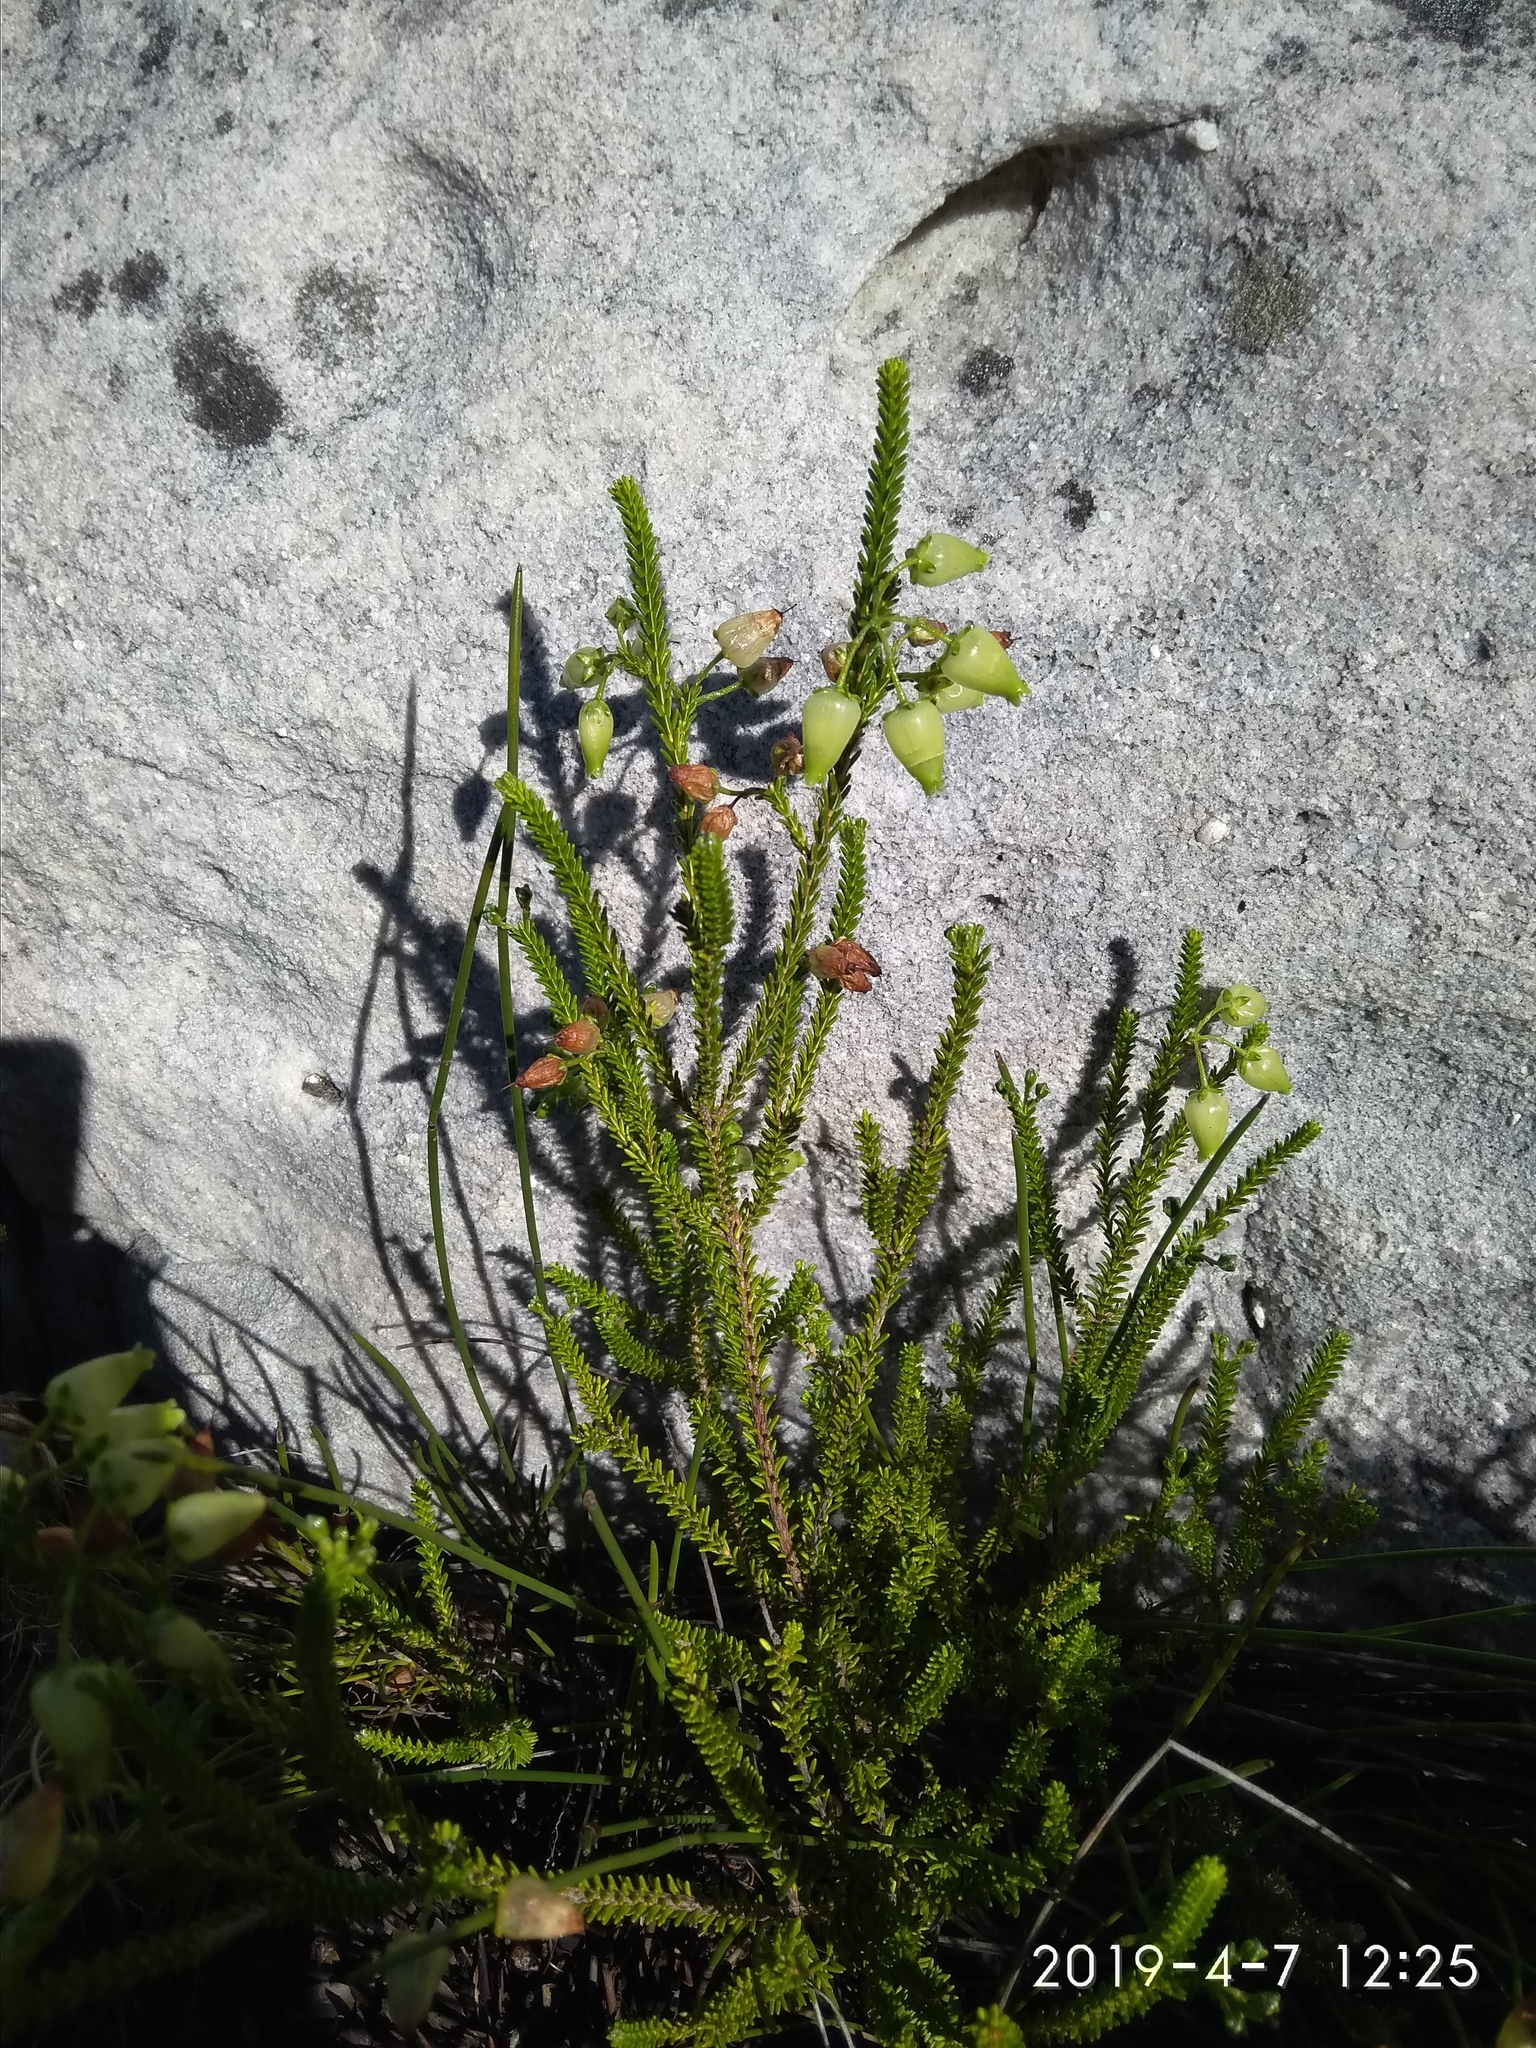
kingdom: Plantae
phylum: Tracheophyta
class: Magnoliopsida
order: Ericales
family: Ericaceae
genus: Erica
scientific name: Erica urna-viridis
